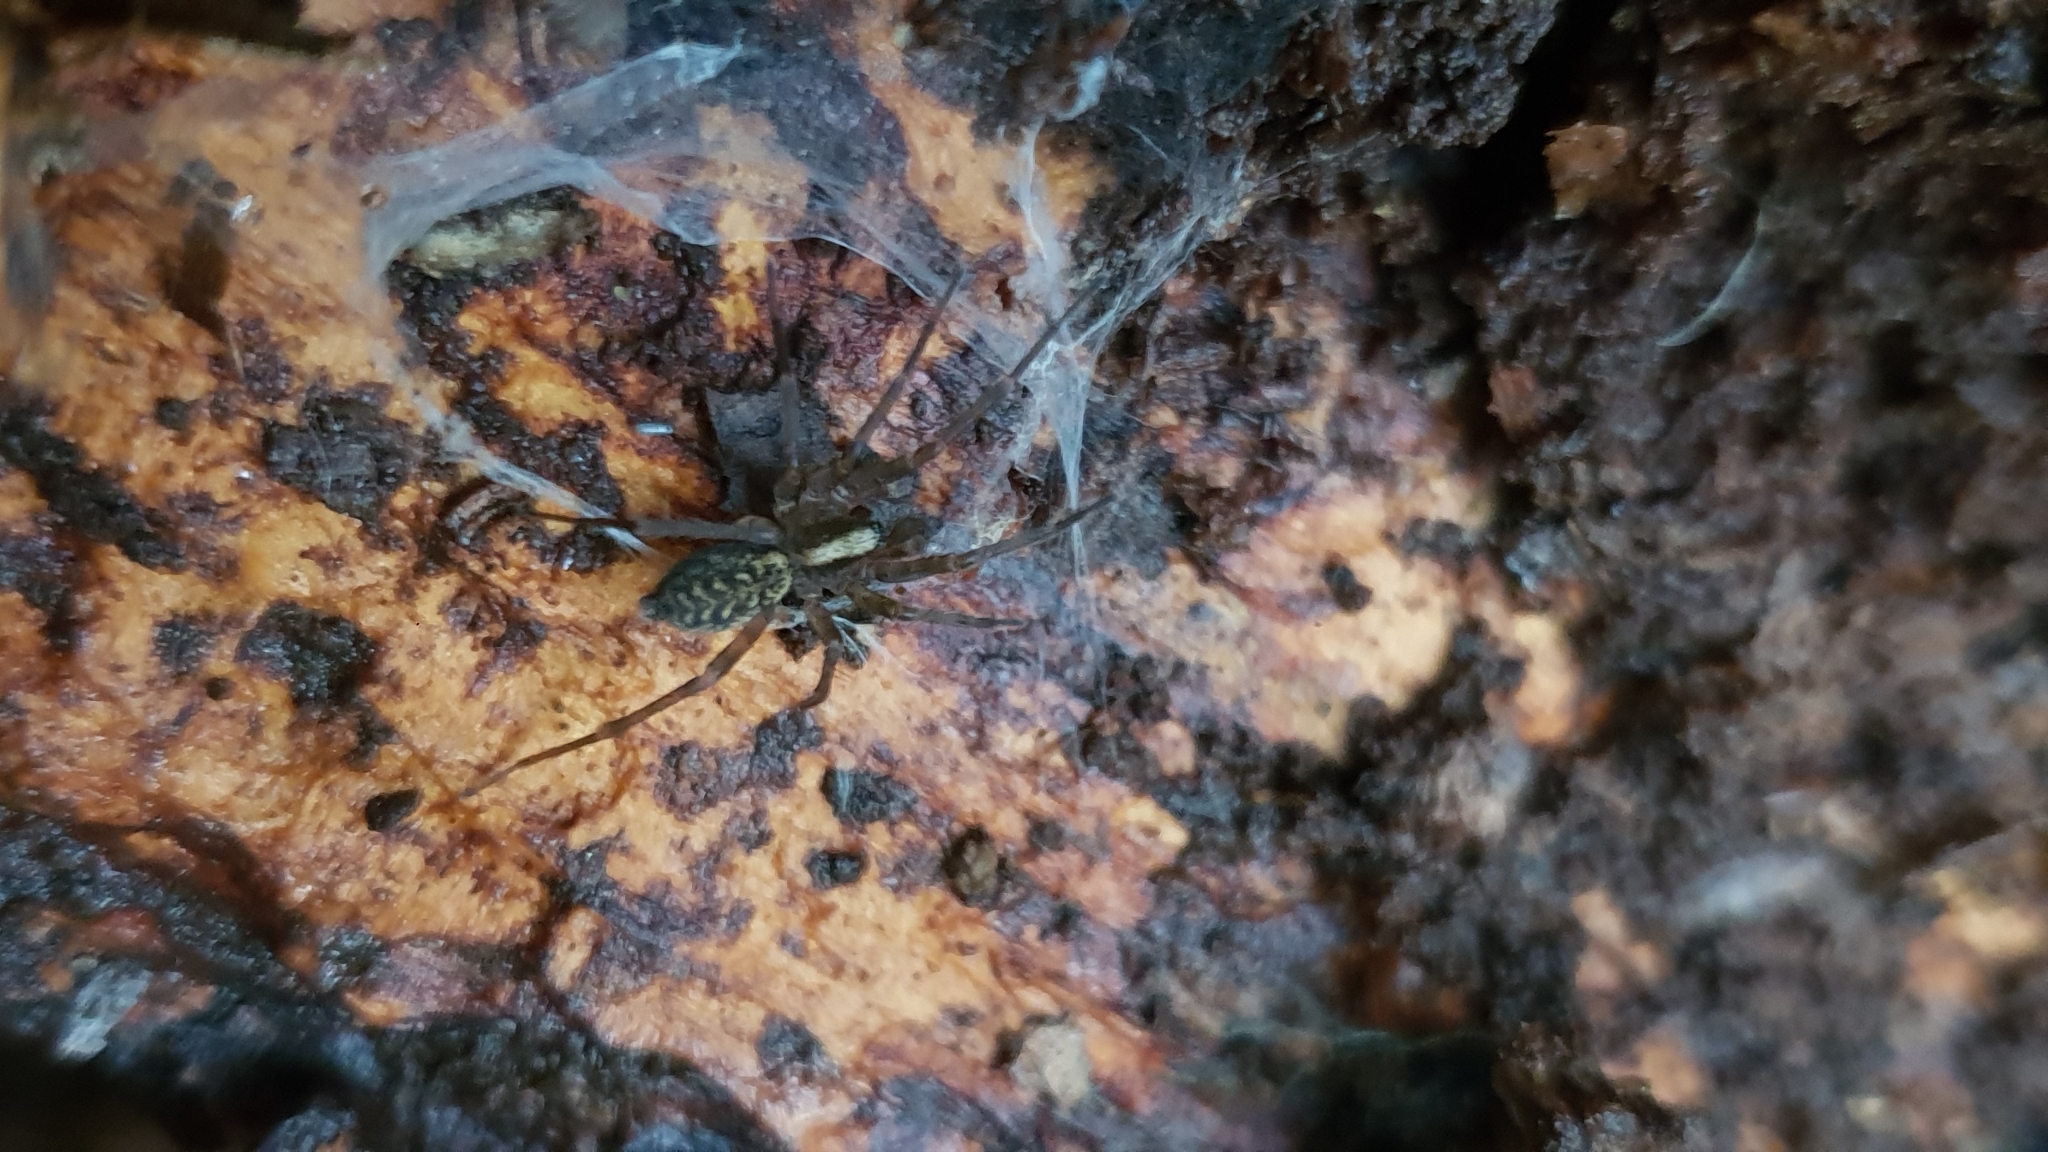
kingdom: Animalia
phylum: Arthropoda
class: Arachnida
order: Araneae
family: Agelenidae
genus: Histopona
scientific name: Histopona torpida
